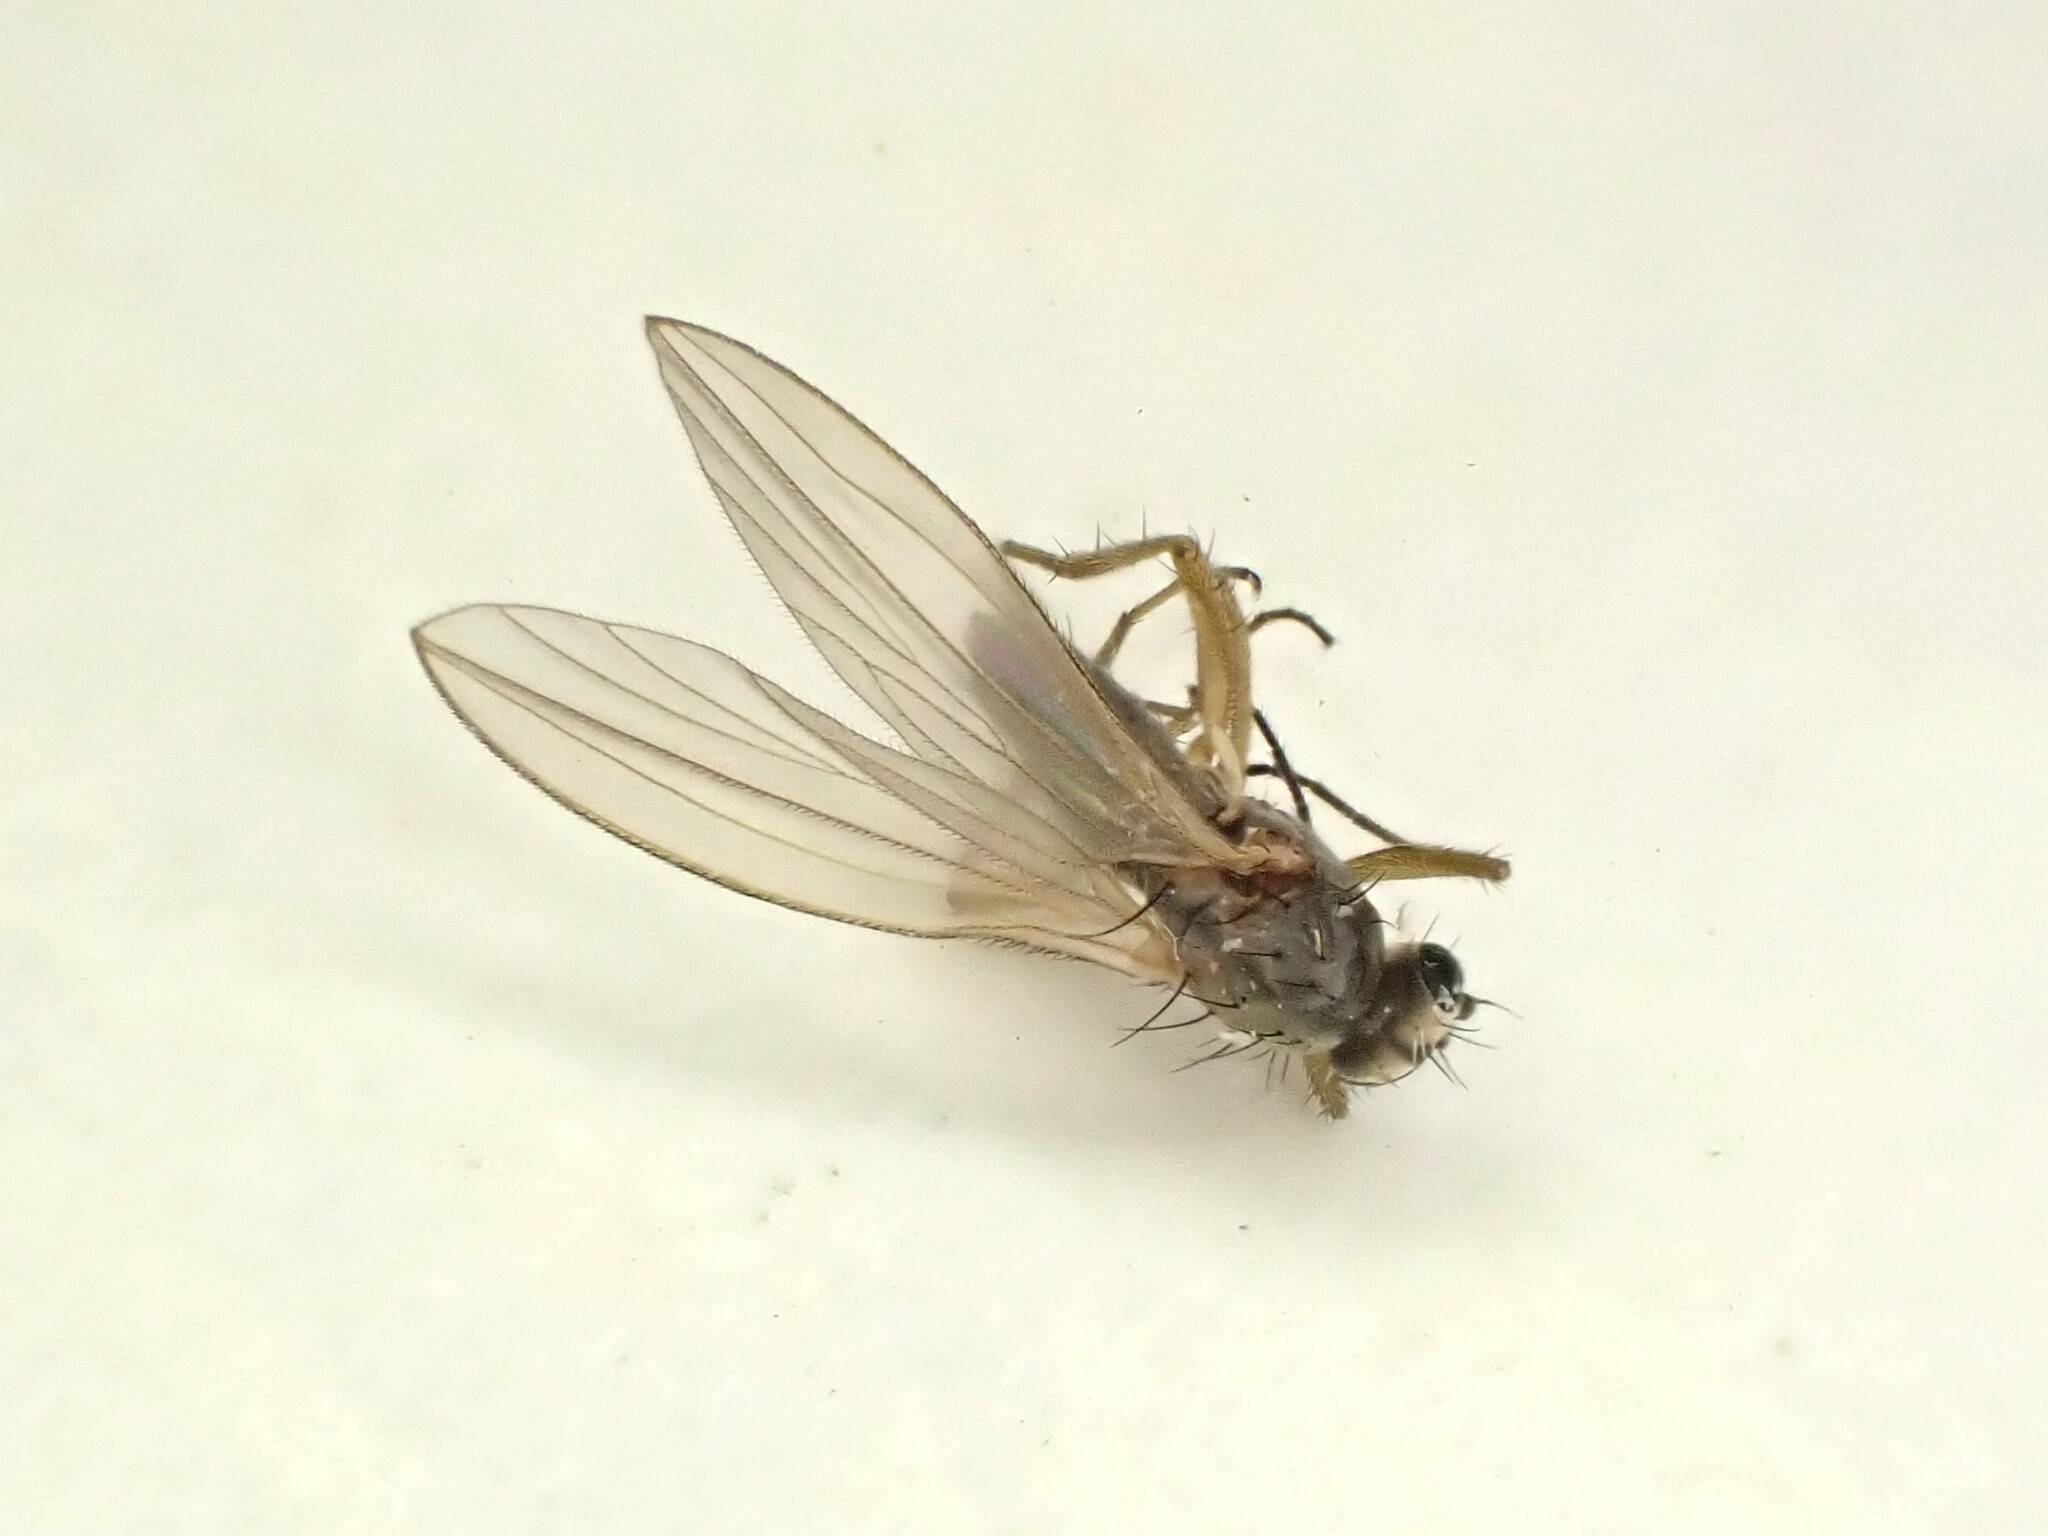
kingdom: Animalia
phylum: Arthropoda
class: Insecta
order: Diptera
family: Lonchopteridae
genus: Lonchoptera
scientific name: Lonchoptera bifurcata
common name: Spear-winged fly
